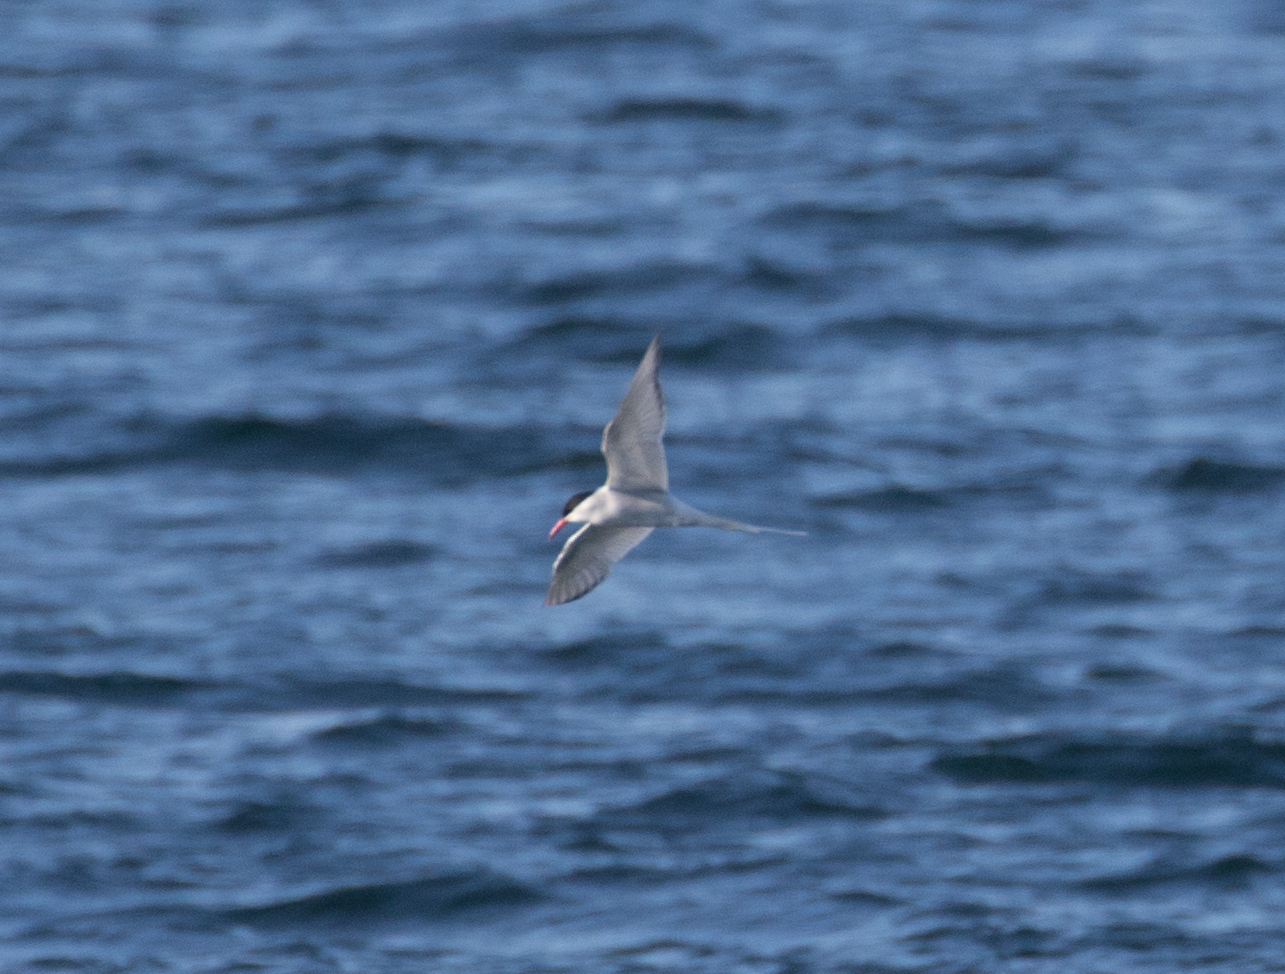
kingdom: Animalia
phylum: Chordata
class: Aves
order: Charadriiformes
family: Laridae
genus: Sterna
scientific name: Sterna paradisaea
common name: Arctic tern
